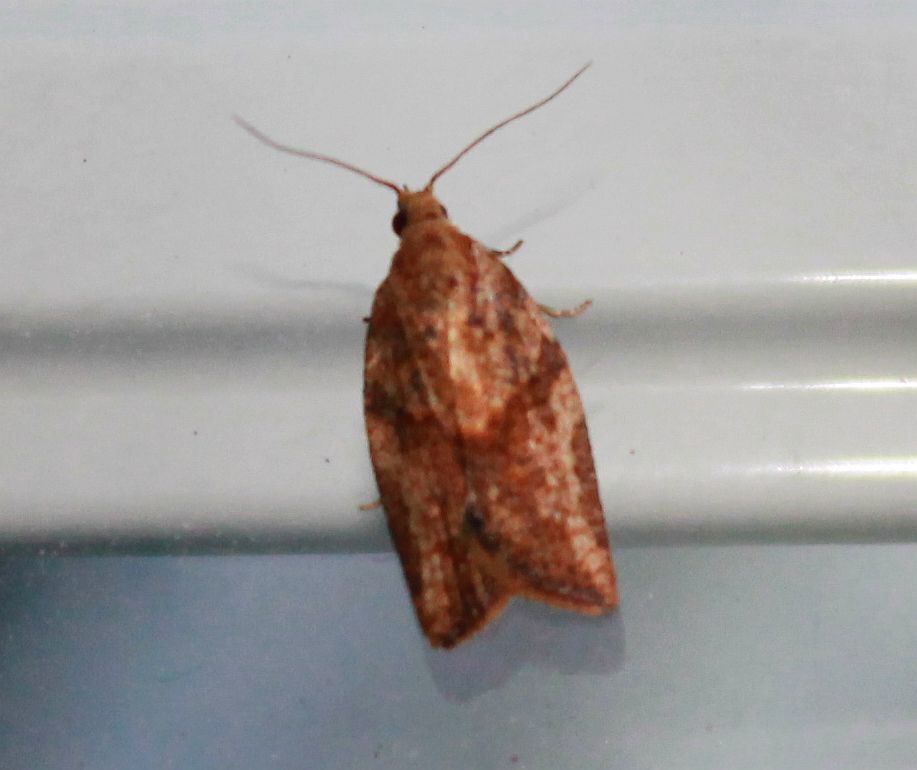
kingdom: Animalia
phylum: Arthropoda
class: Insecta
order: Lepidoptera
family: Tortricidae
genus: Epiphyas
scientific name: Epiphyas postvittana
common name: Light brown apple moth
